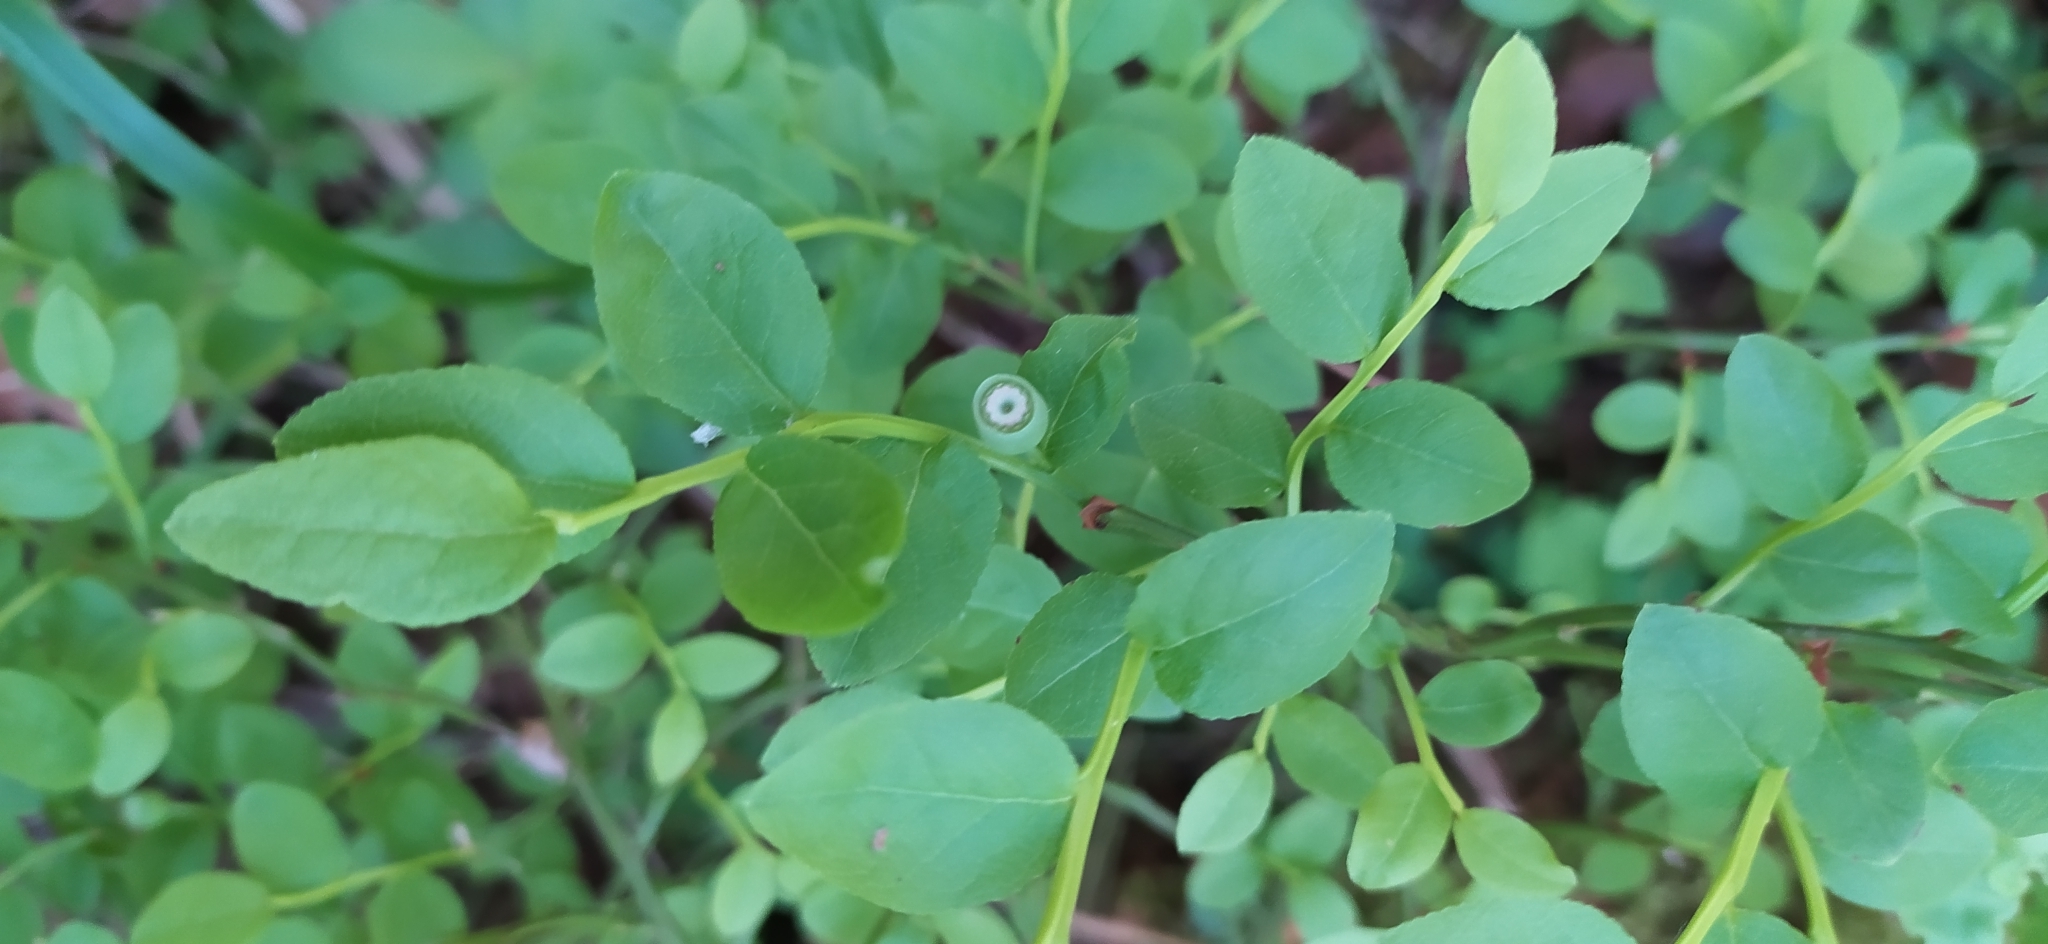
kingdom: Plantae
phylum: Tracheophyta
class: Magnoliopsida
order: Ericales
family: Ericaceae
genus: Vaccinium
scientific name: Vaccinium myrtillus
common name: Bilberry
